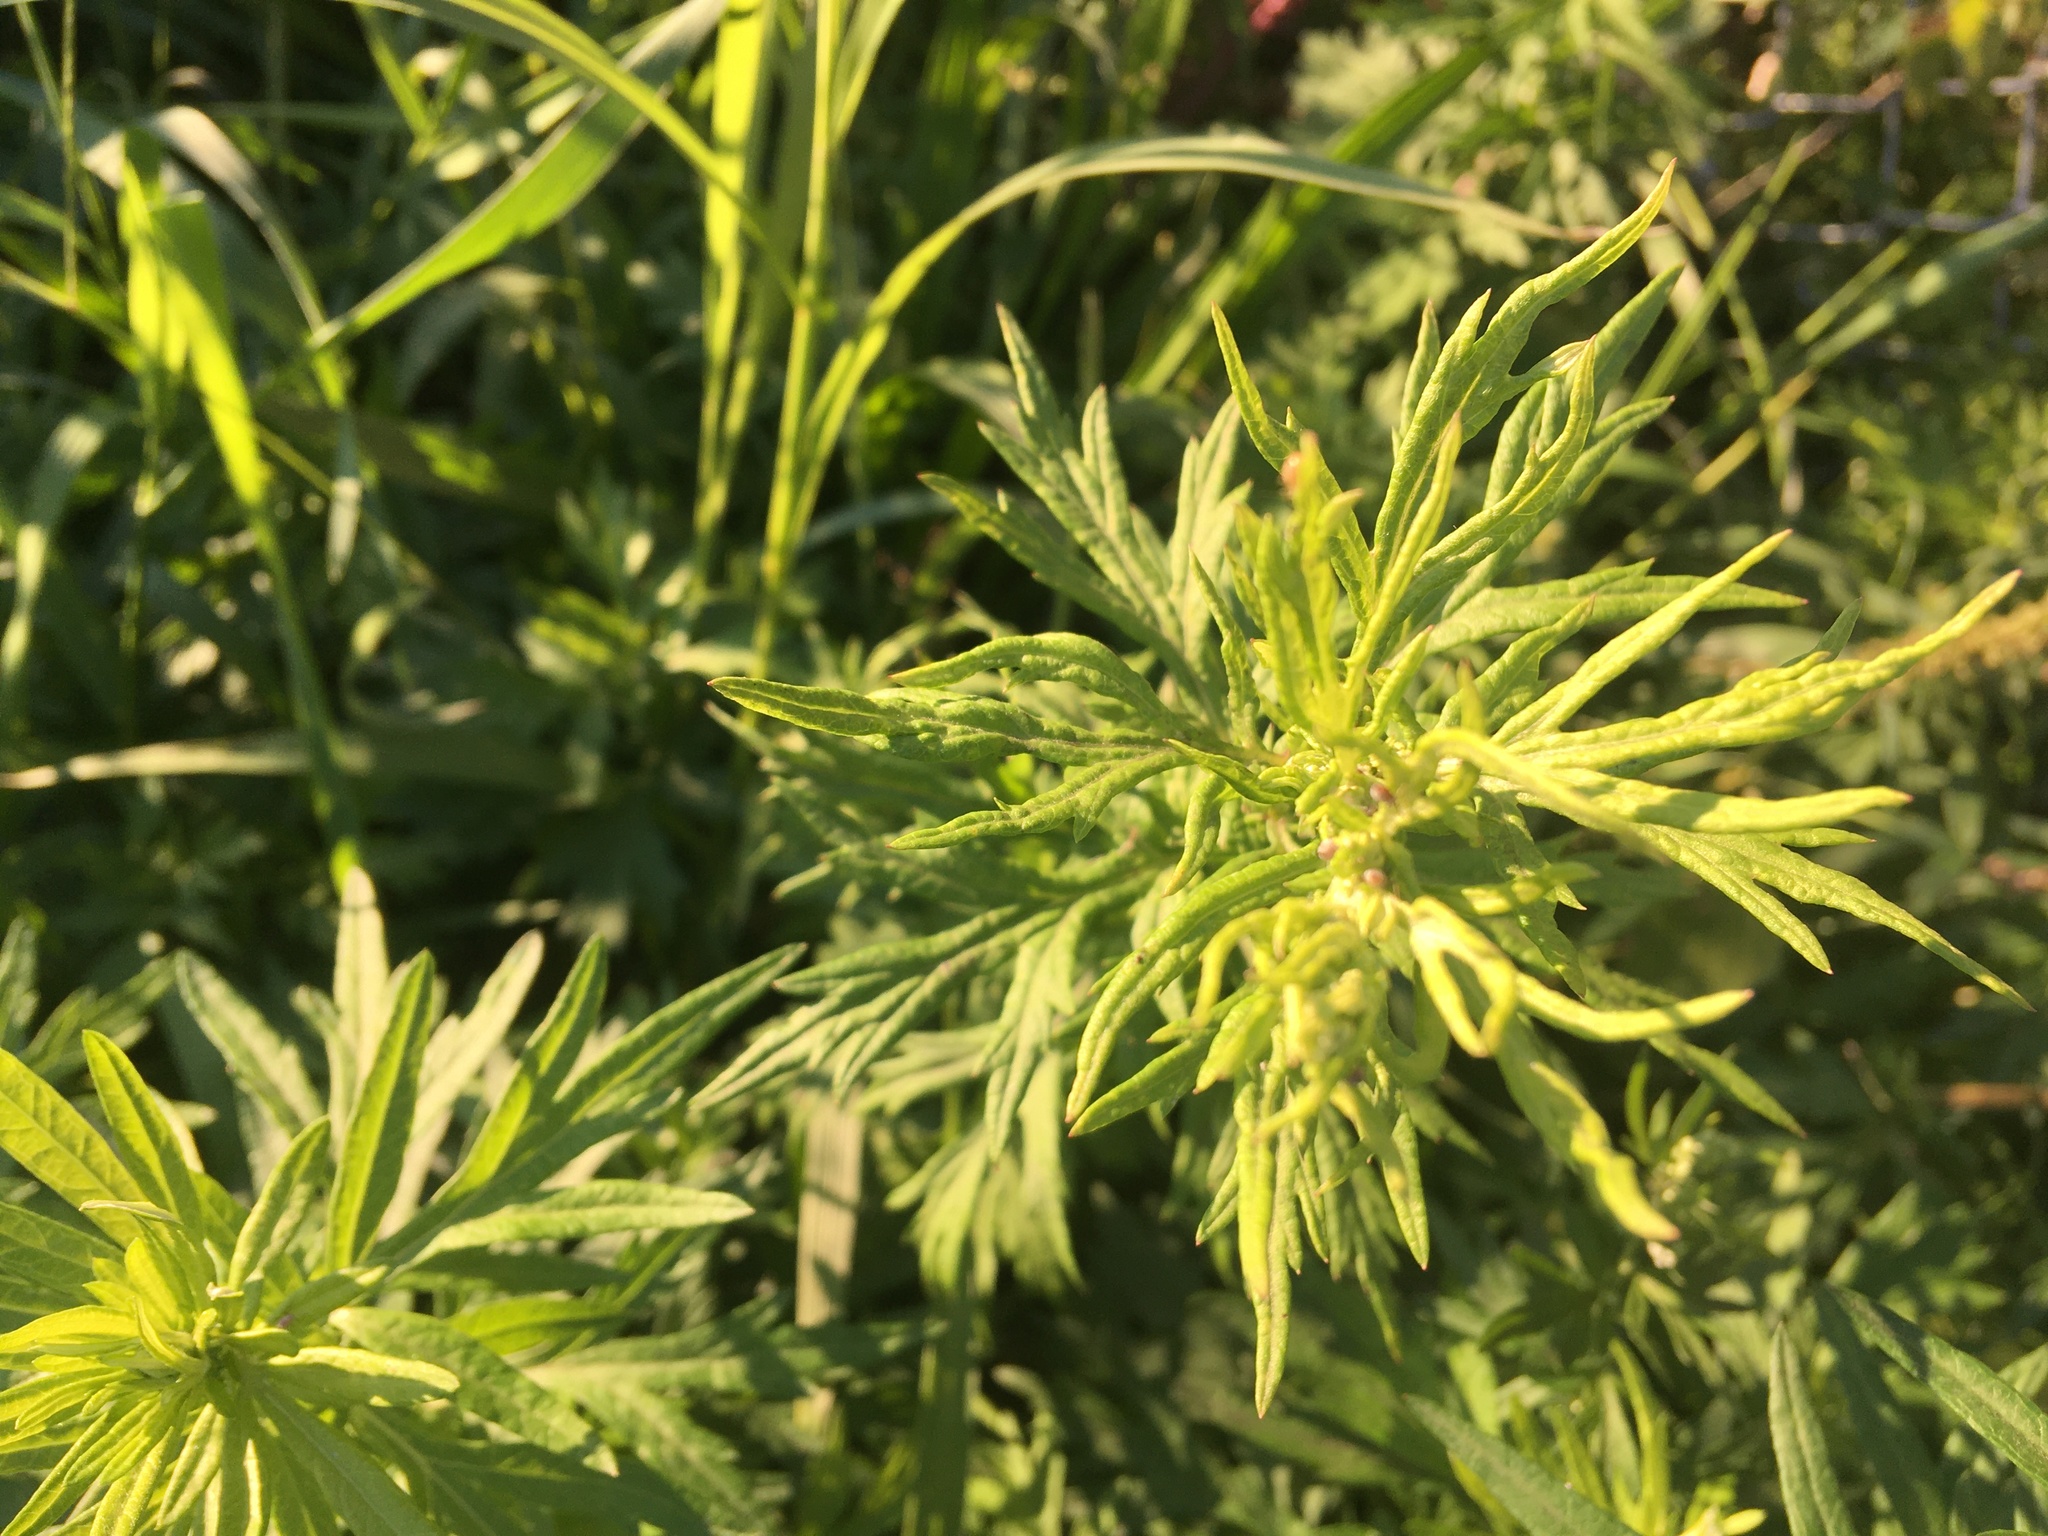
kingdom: Plantae
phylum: Tracheophyta
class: Magnoliopsida
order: Asterales
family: Asteraceae
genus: Artemisia
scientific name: Artemisia vulgaris
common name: Mugwort
